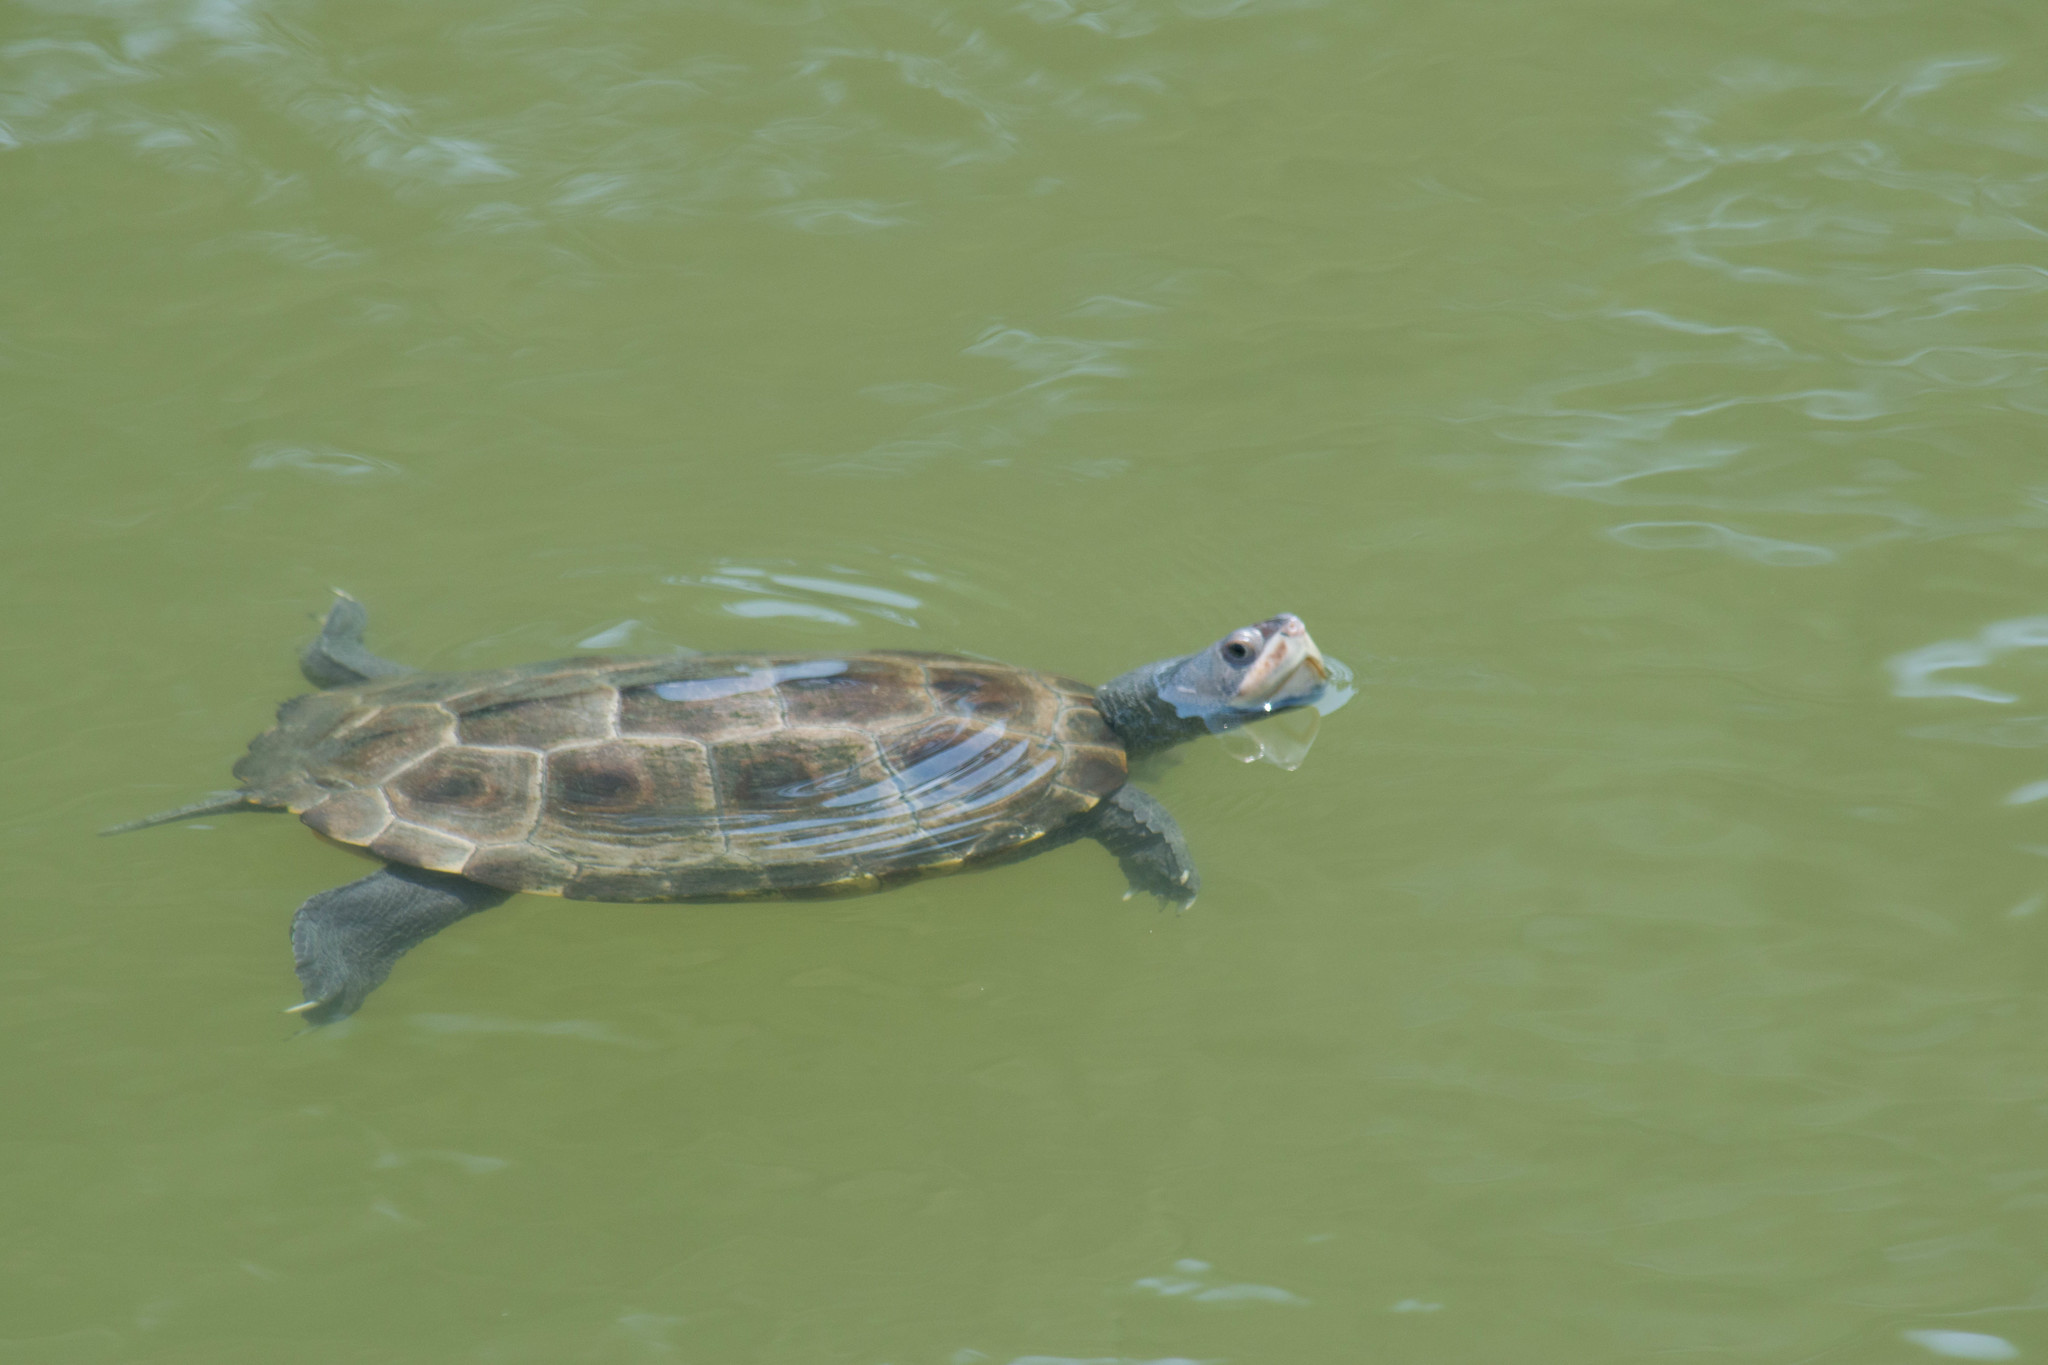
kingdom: Animalia
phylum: Chordata
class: Testudines
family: Emydidae
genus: Malaclemys
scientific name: Malaclemys terrapin
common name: Diamondback terrapin
